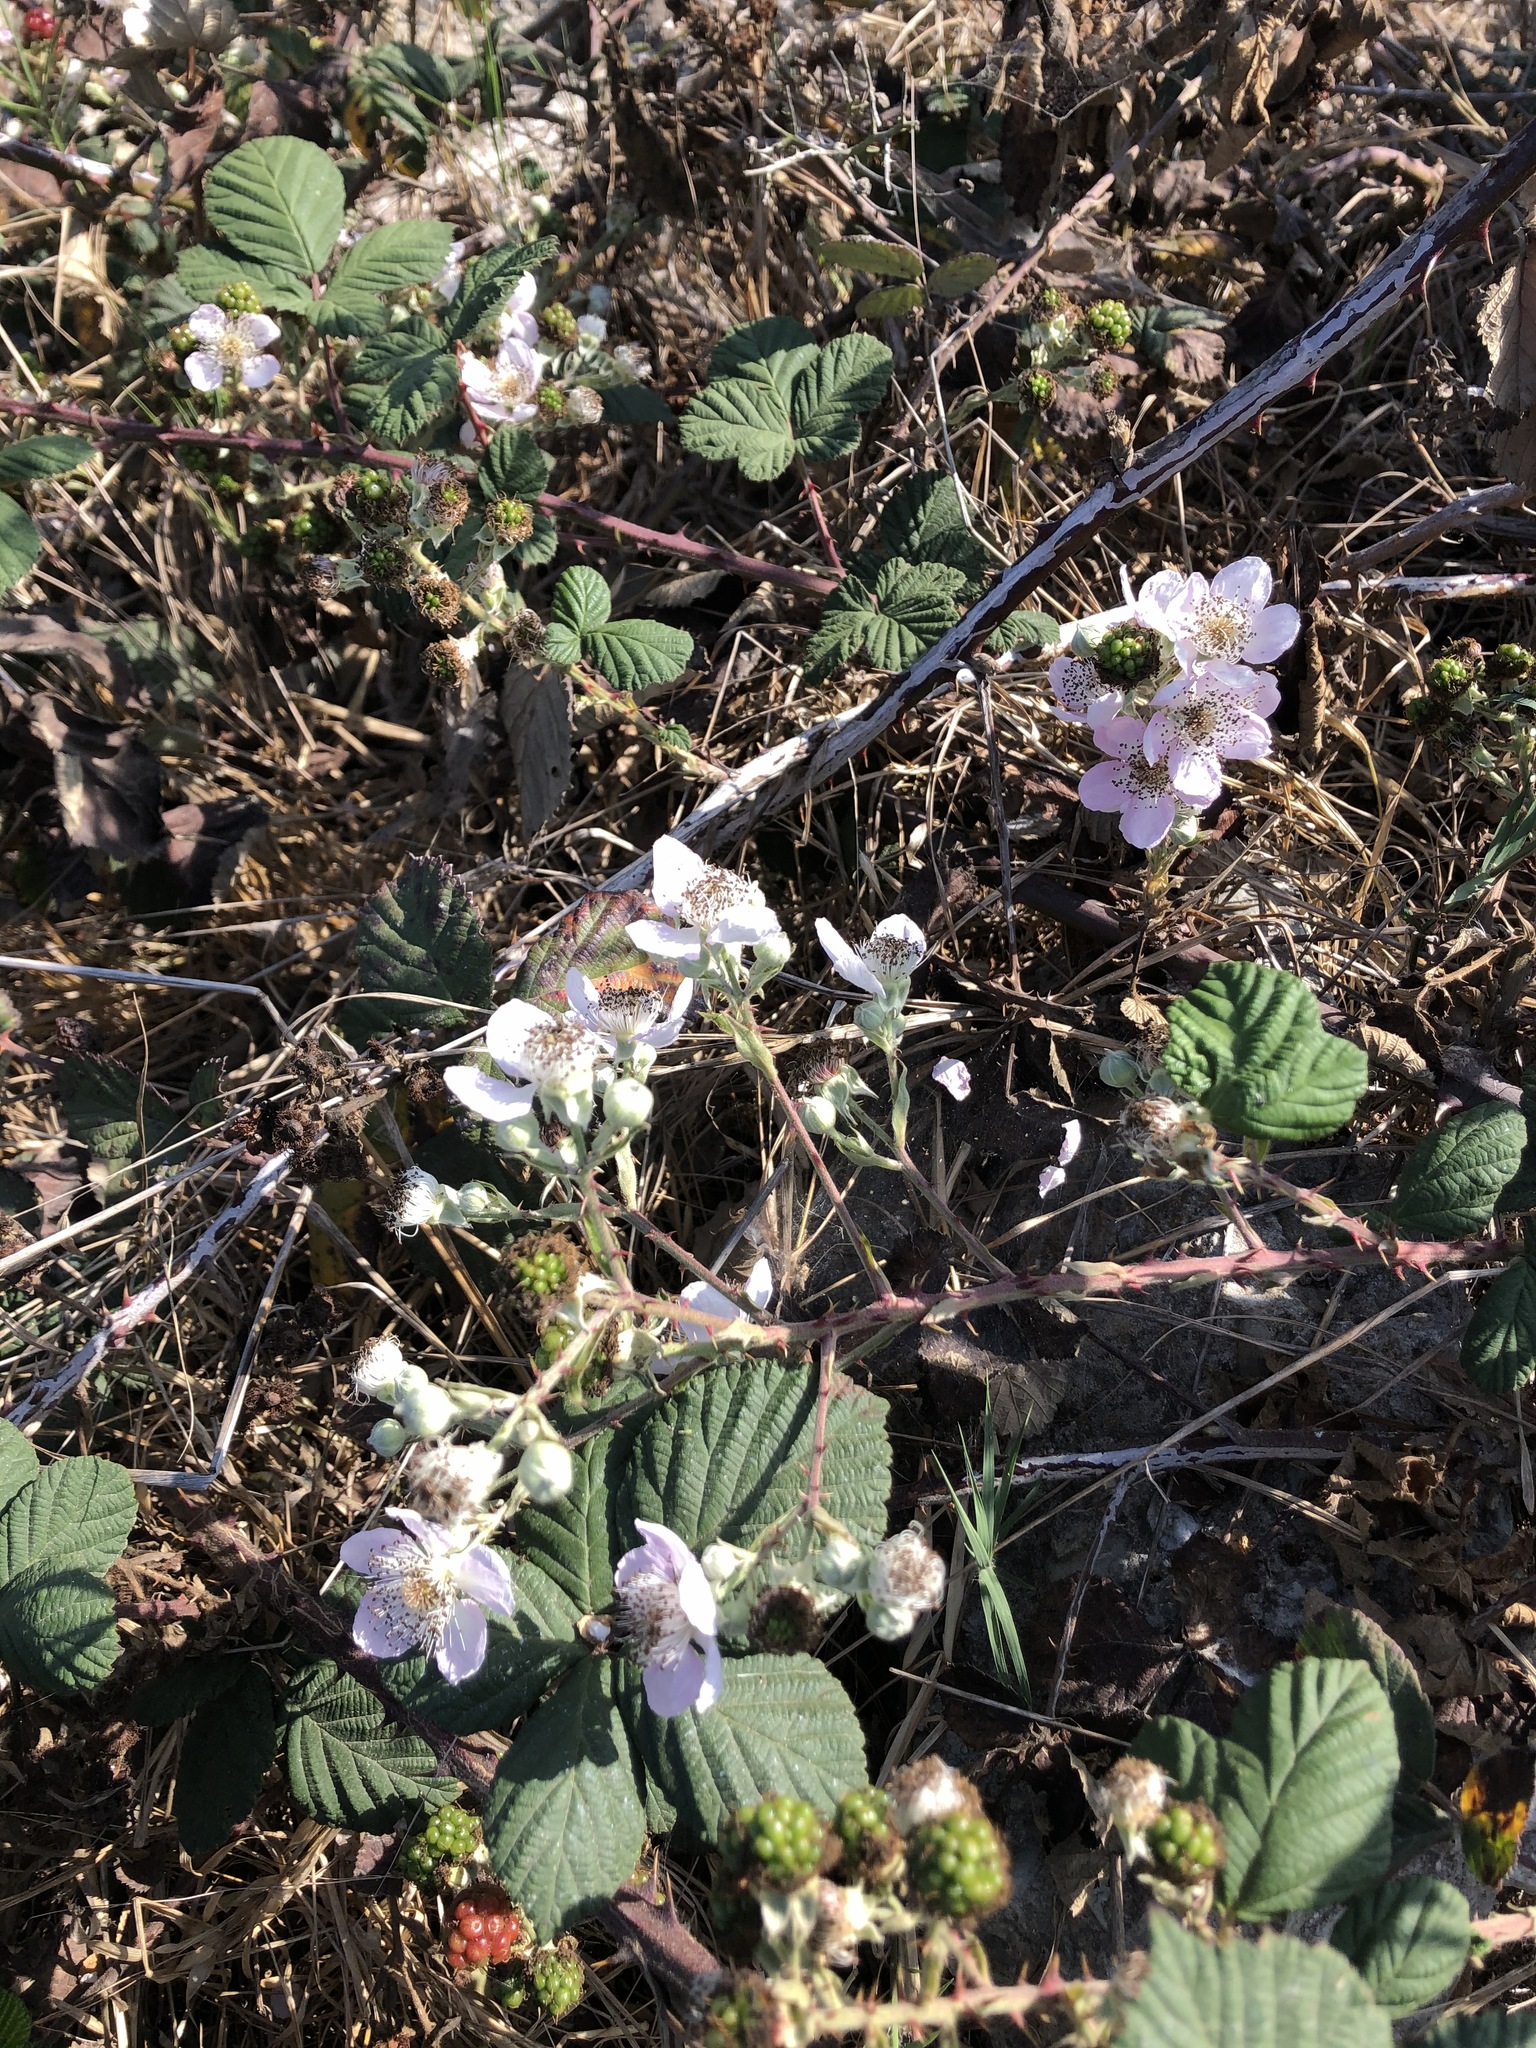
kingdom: Plantae
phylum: Tracheophyta
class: Magnoliopsida
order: Rosales
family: Rosaceae
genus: Rubus
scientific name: Rubus armeniacus
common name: Himalayan blackberry
